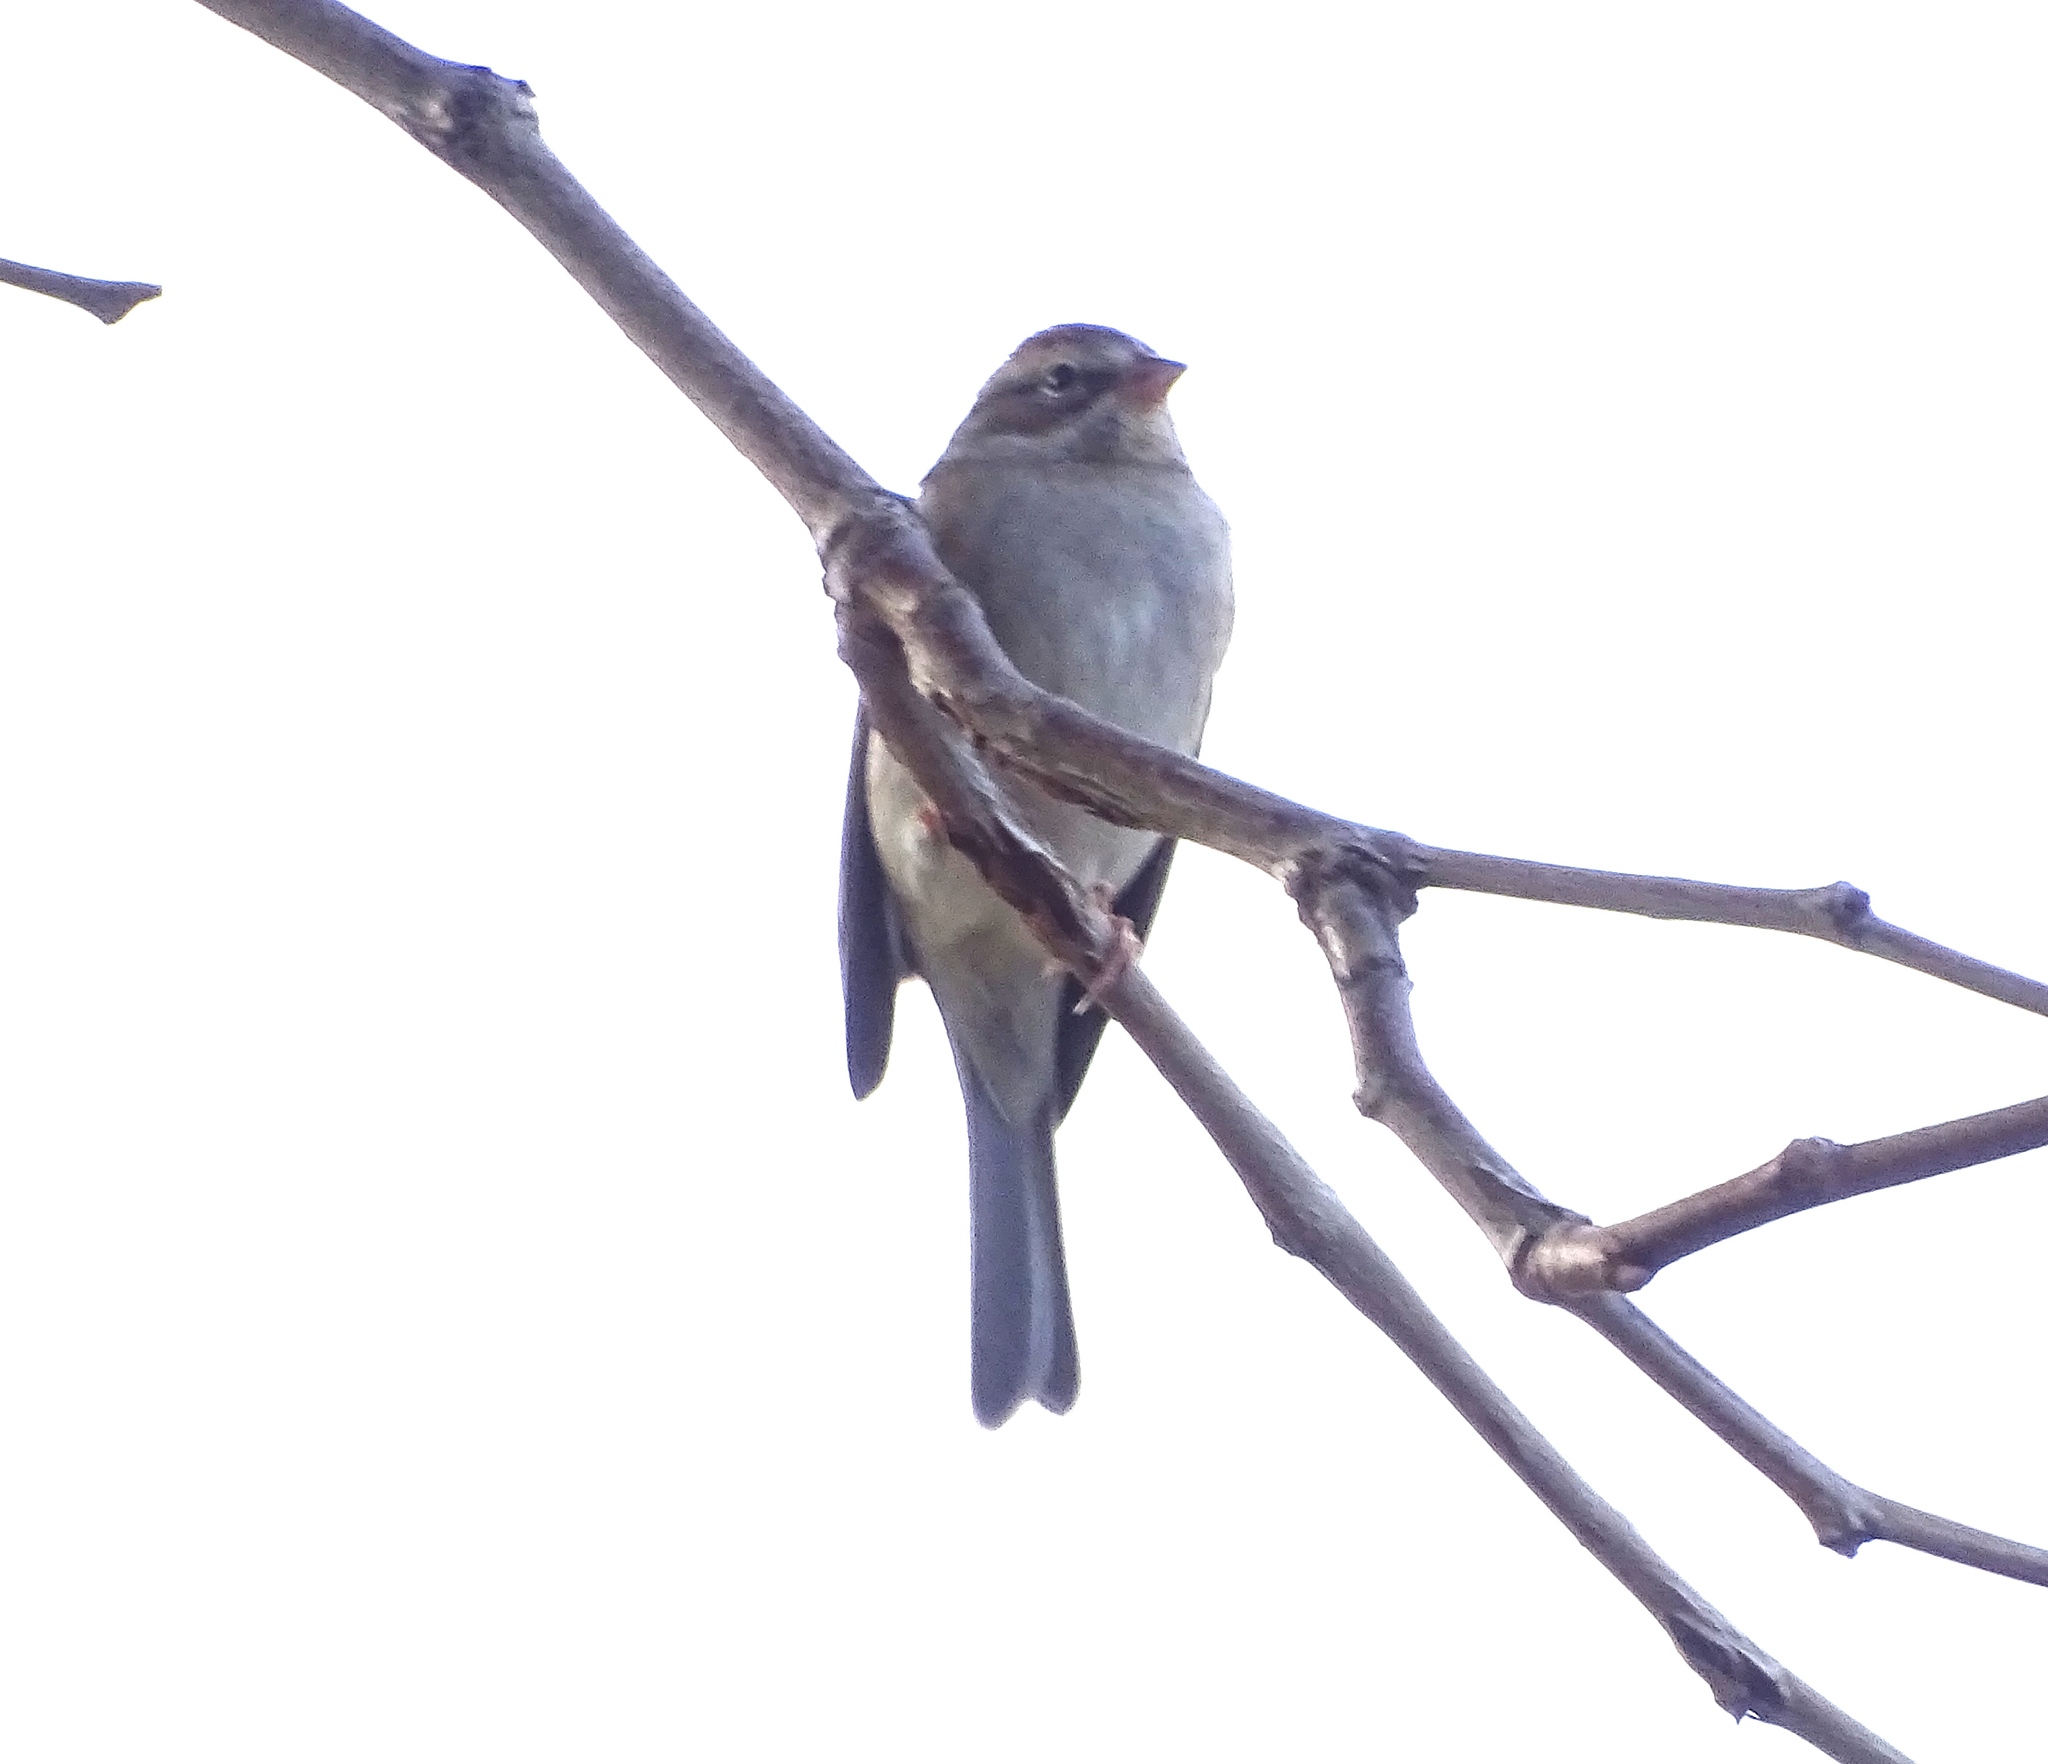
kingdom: Animalia
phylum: Chordata
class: Aves
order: Passeriformes
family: Passerellidae
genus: Spizella
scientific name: Spizella passerina
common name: Chipping sparrow
